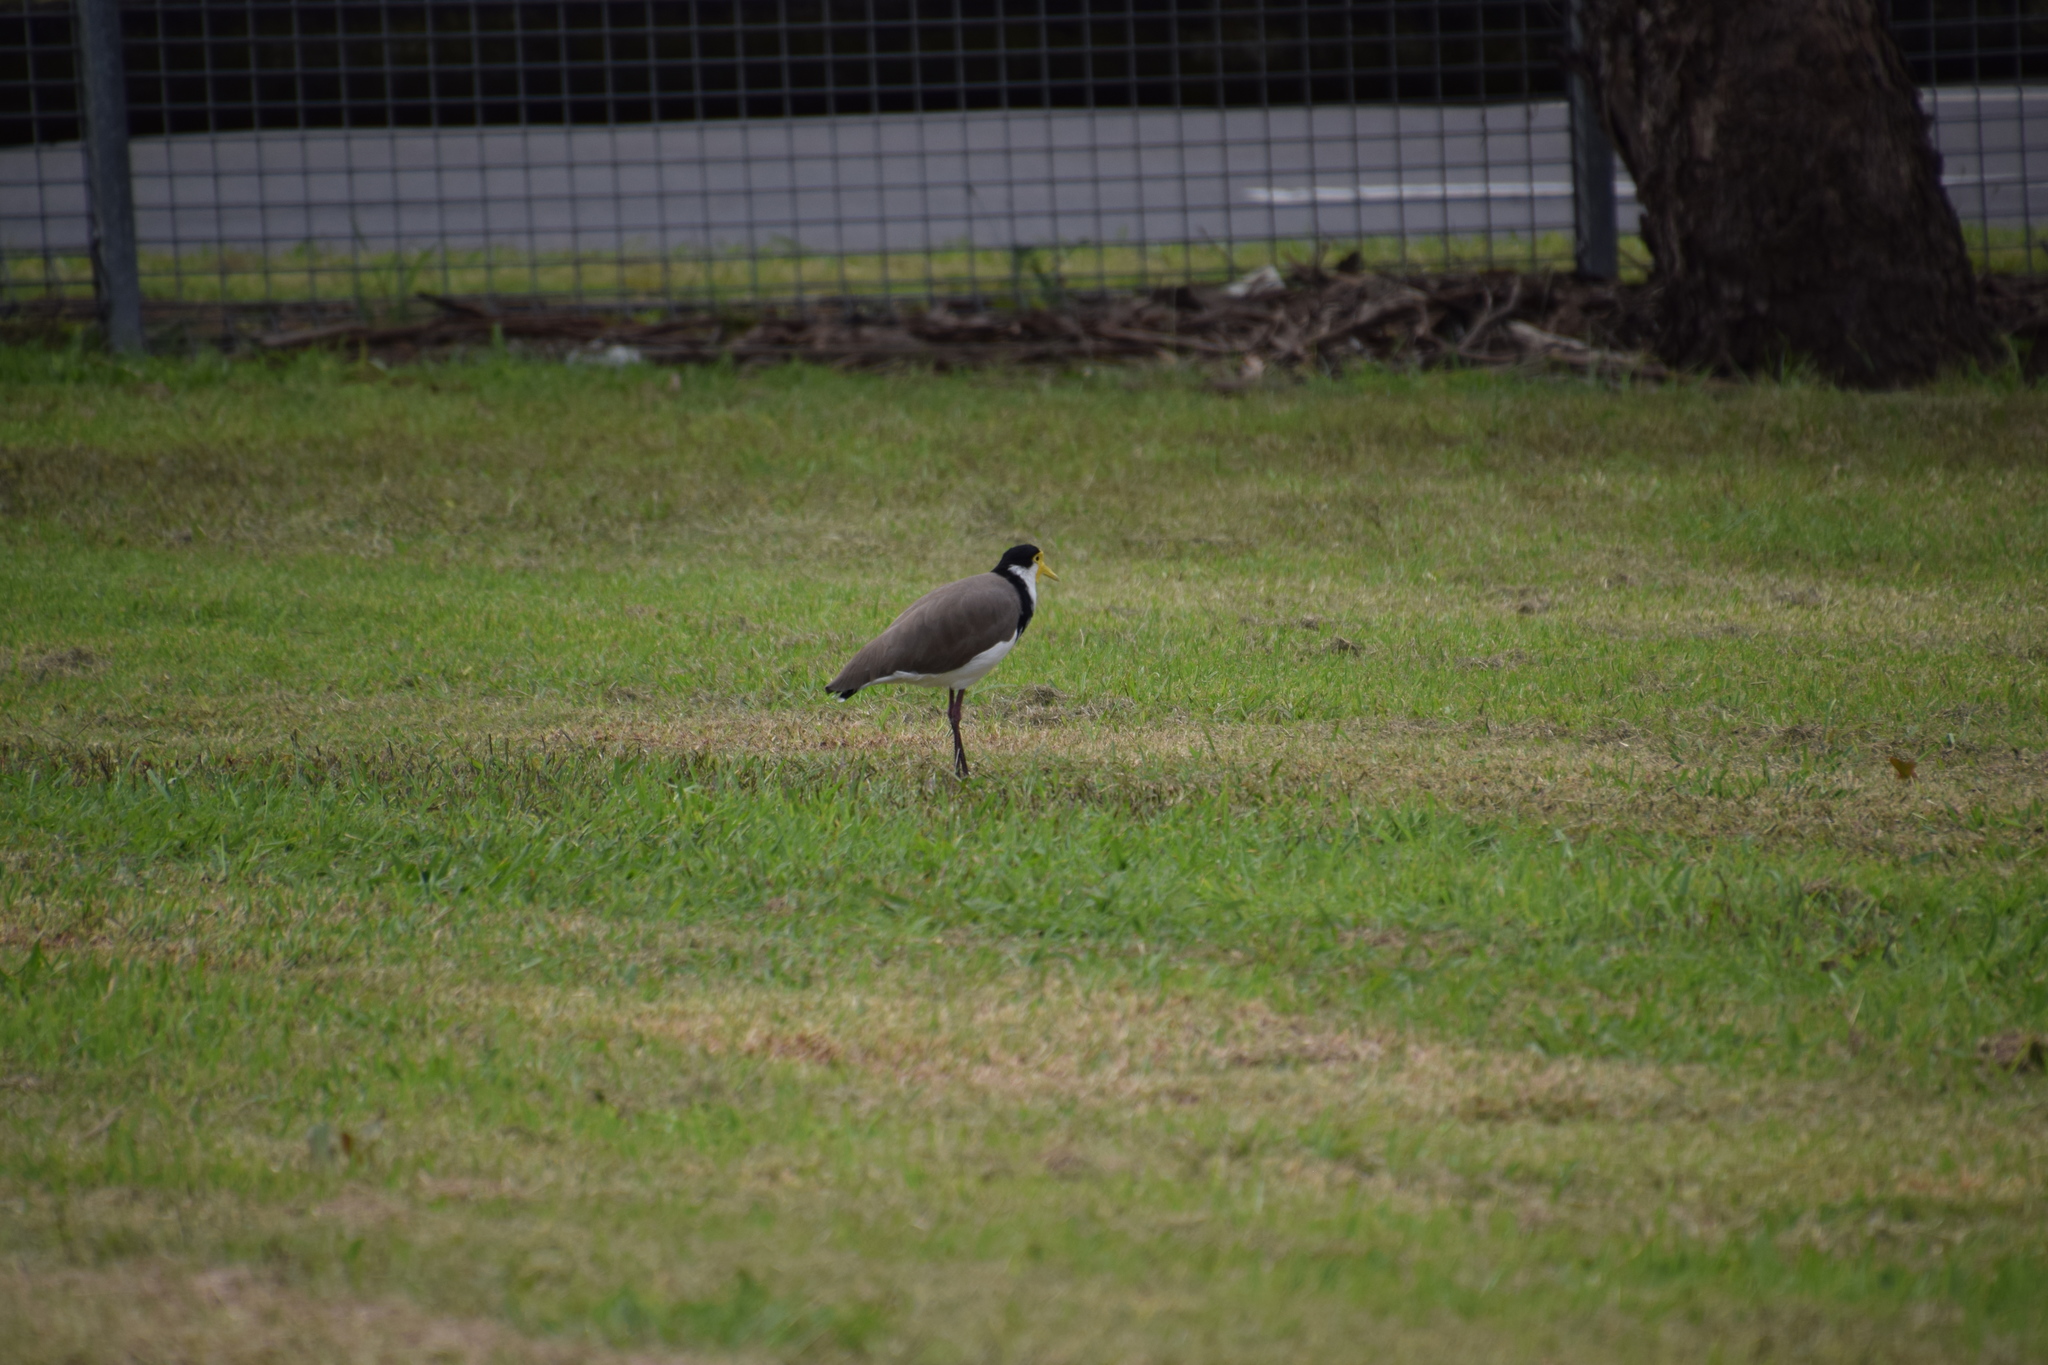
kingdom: Animalia
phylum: Chordata
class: Aves
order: Charadriiformes
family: Charadriidae
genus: Vanellus
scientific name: Vanellus miles
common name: Masked lapwing
